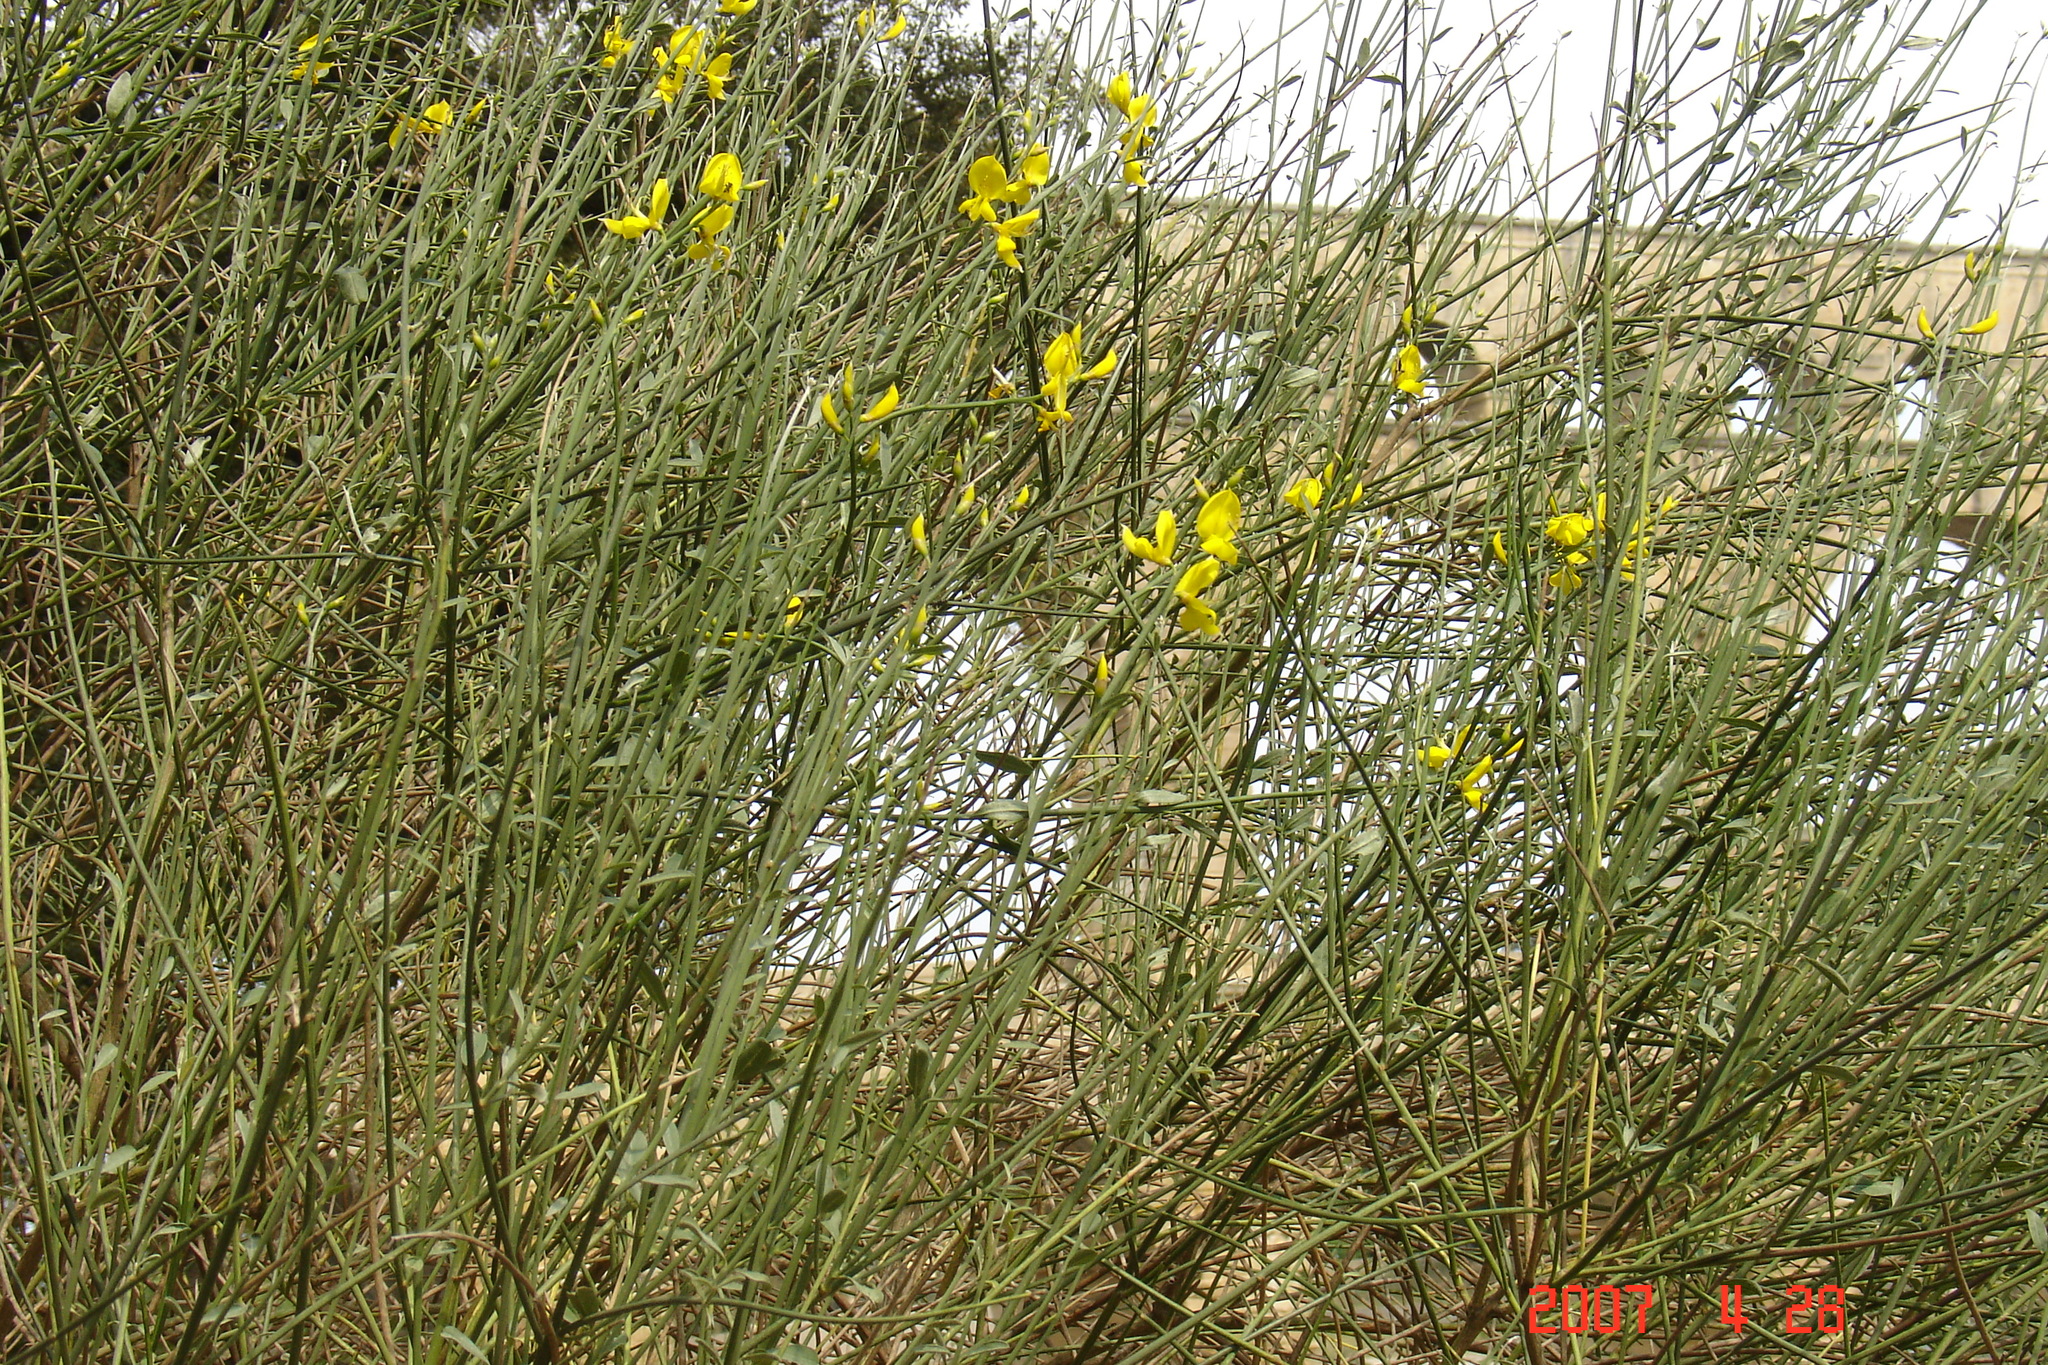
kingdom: Plantae
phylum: Tracheophyta
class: Magnoliopsida
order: Fabales
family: Fabaceae
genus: Spartium
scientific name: Spartium junceum
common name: Spanish broom
